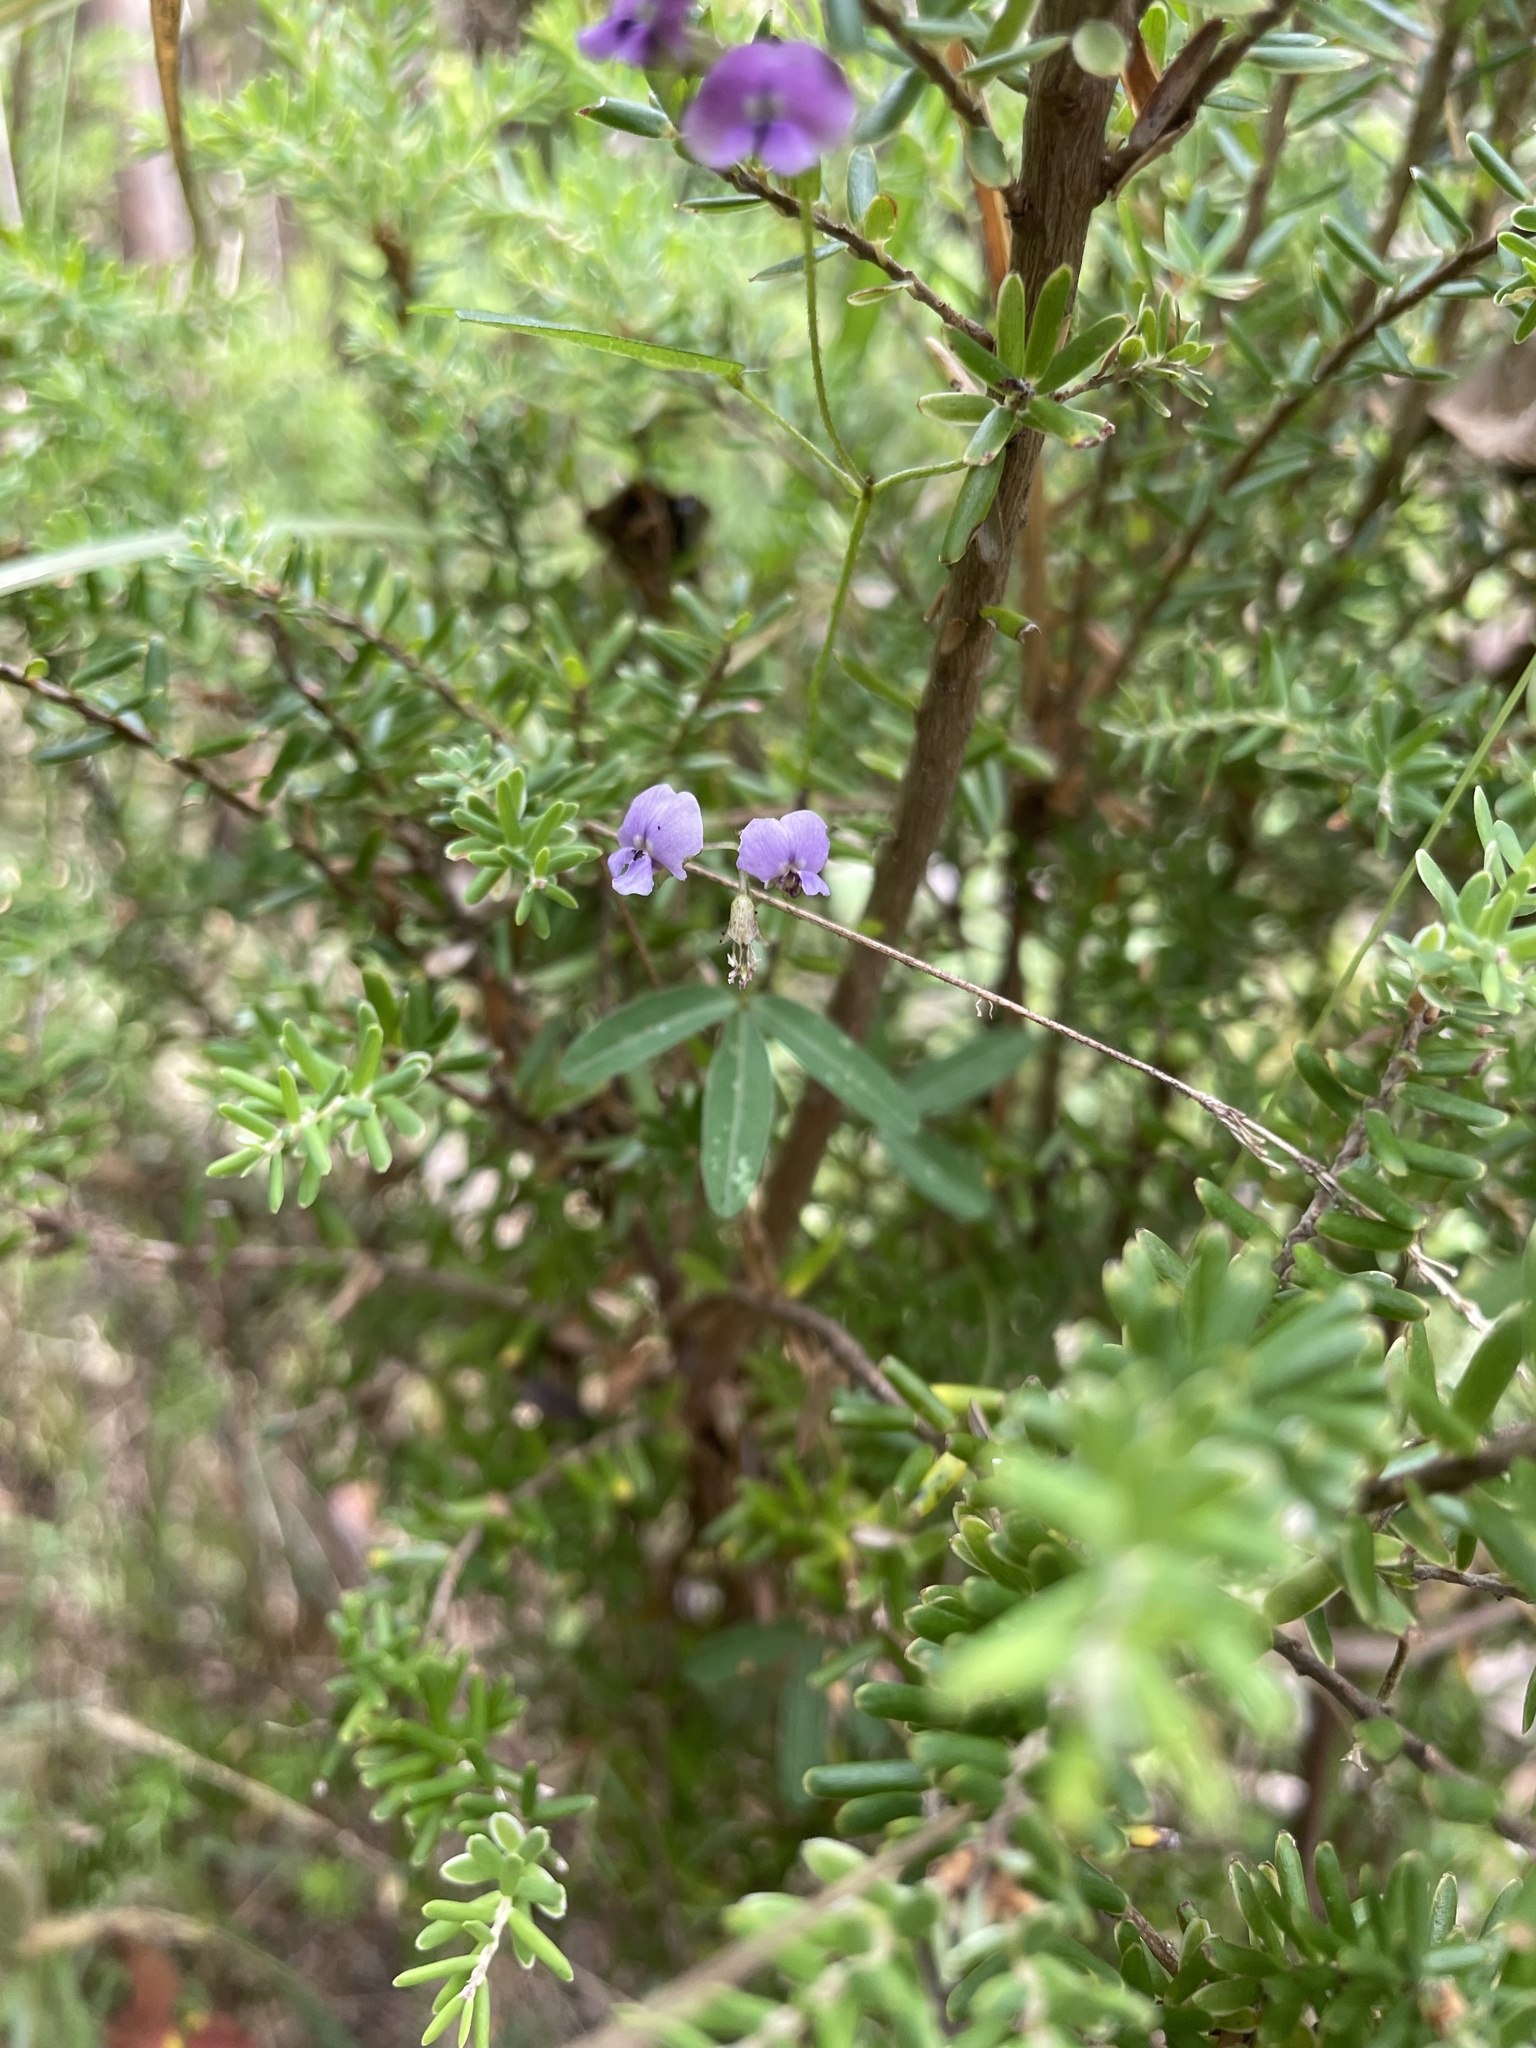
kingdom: Plantae
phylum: Tracheophyta
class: Magnoliopsida
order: Fabales
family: Fabaceae
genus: Glycine
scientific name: Glycine clandestina
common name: Twining glycine
